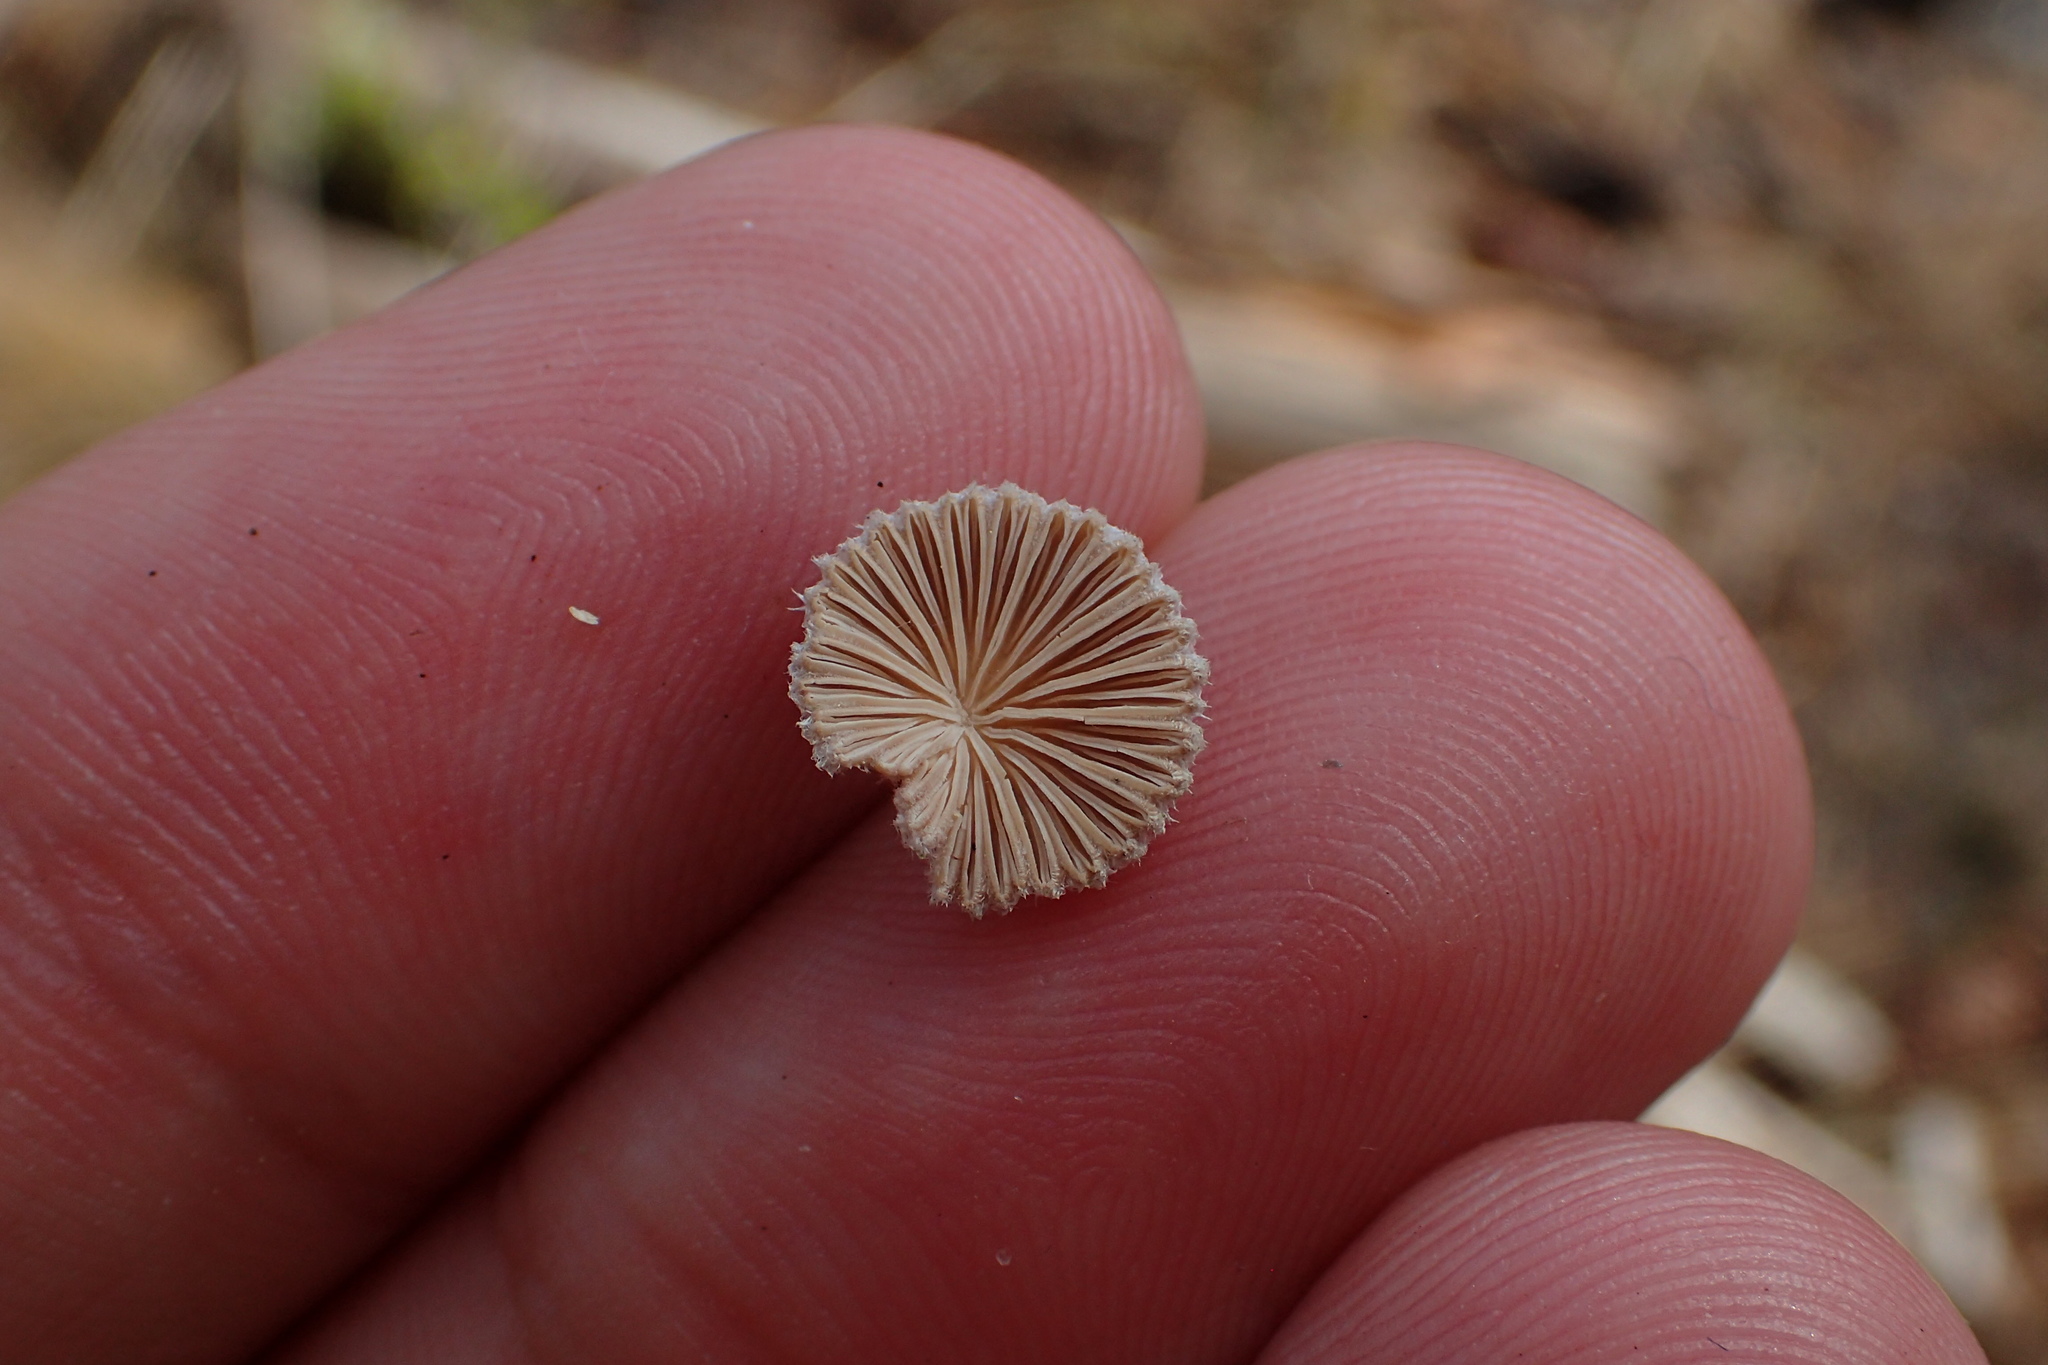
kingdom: Fungi
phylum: Basidiomycota
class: Agaricomycetes
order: Agaricales
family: Schizophyllaceae
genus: Schizophyllum
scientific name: Schizophyllum commune
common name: Common porecrust
